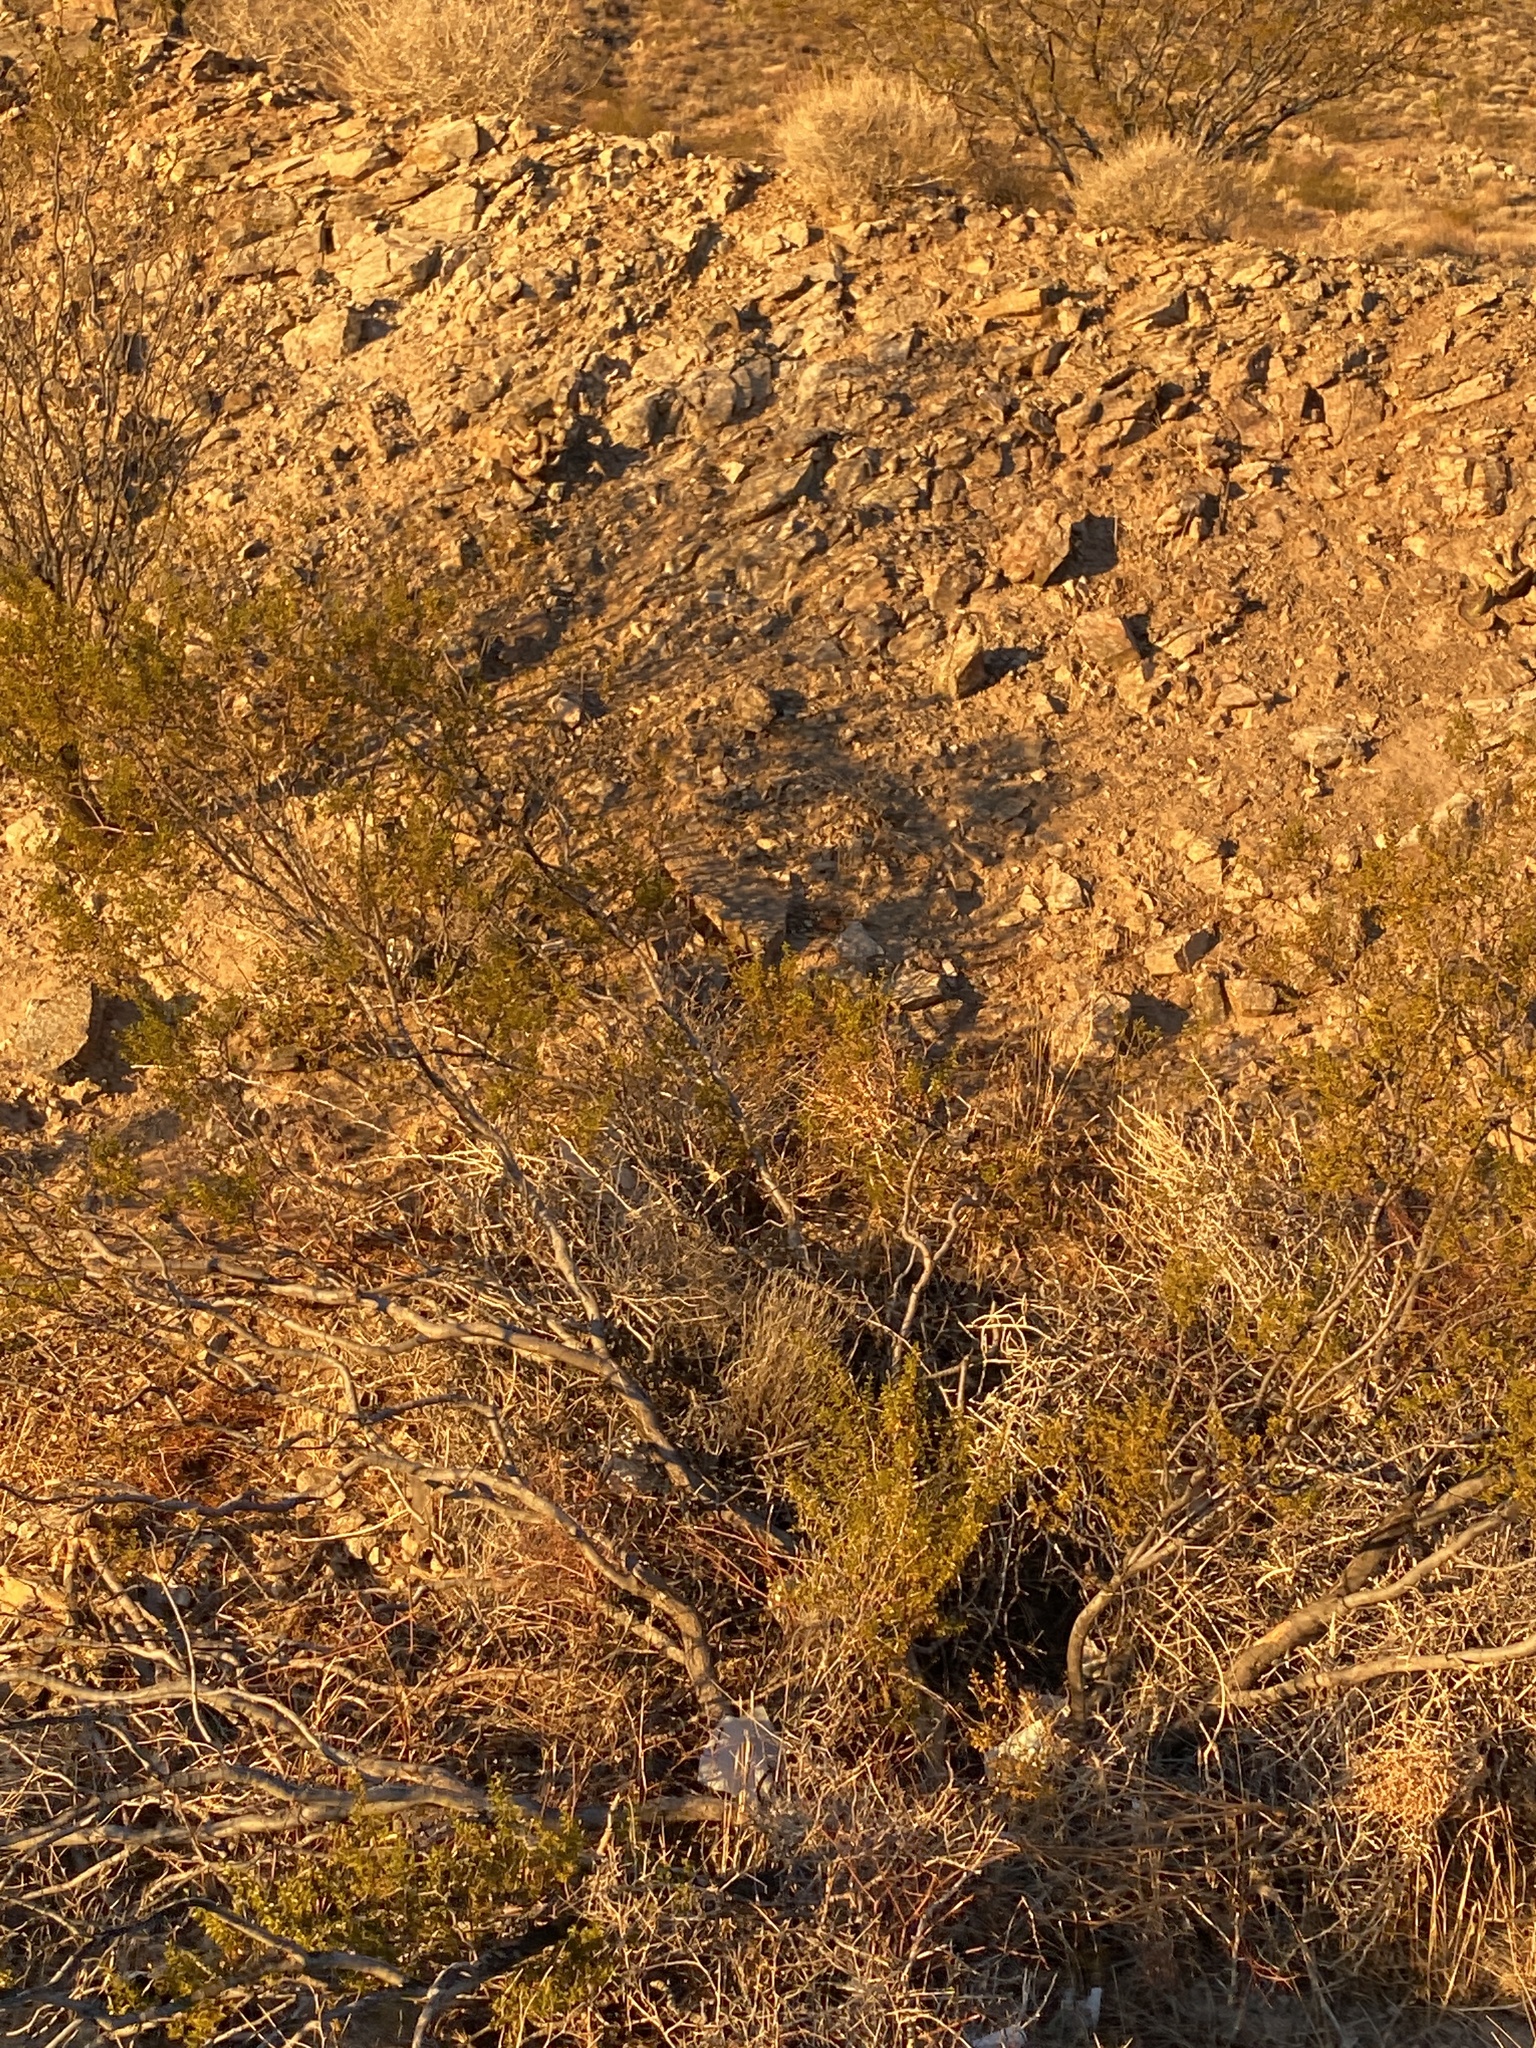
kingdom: Plantae
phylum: Tracheophyta
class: Magnoliopsida
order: Zygophyllales
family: Zygophyllaceae
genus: Larrea
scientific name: Larrea tridentata
